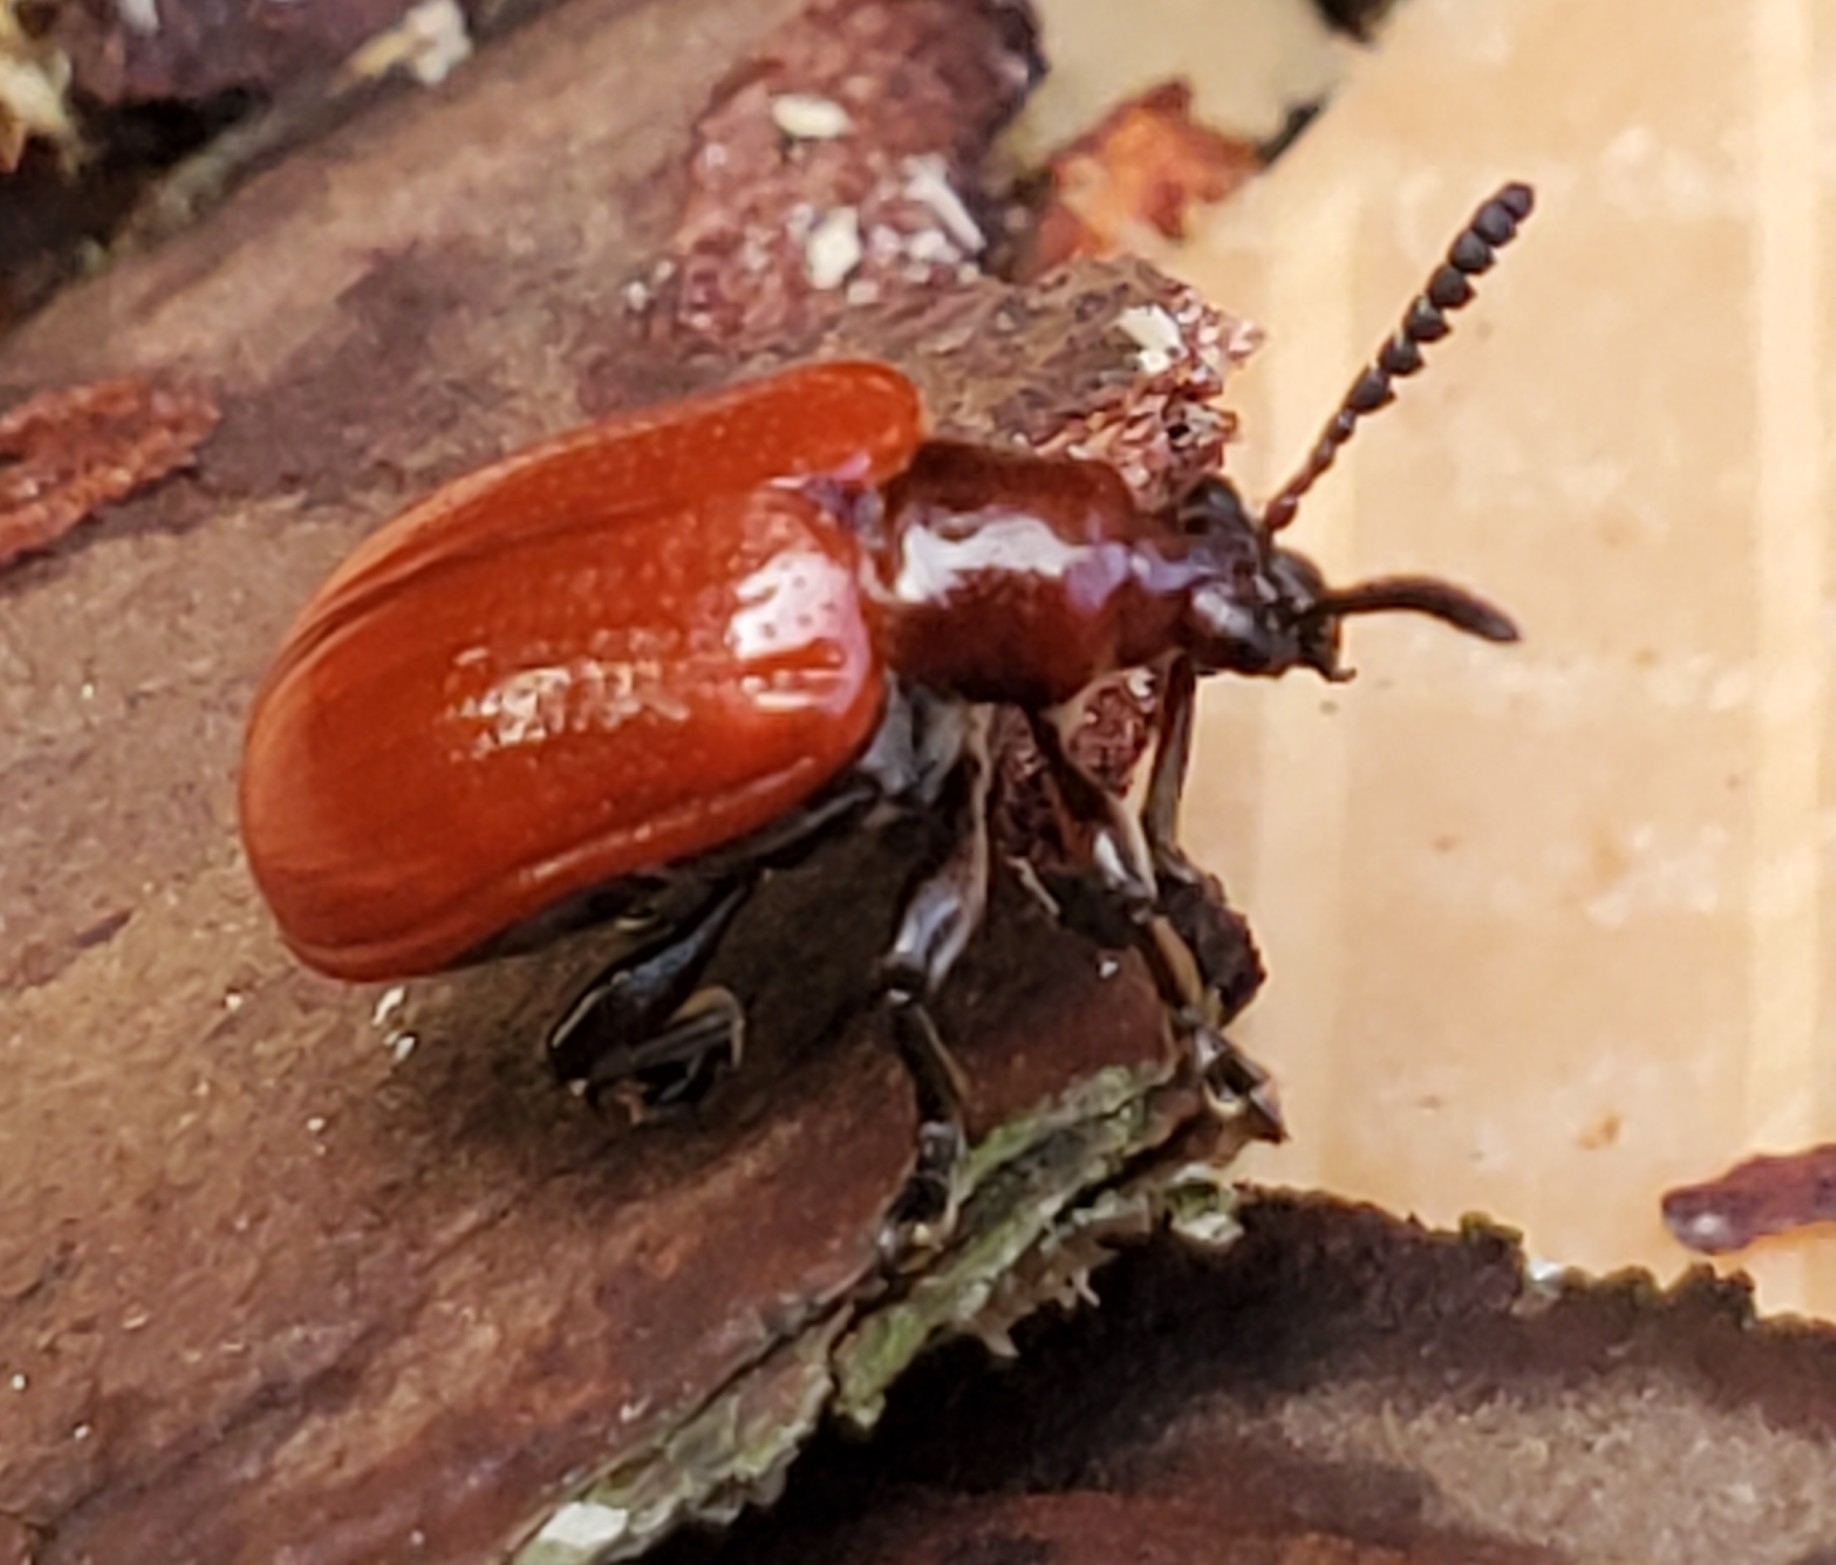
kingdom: Animalia
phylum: Arthropoda
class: Insecta
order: Coleoptera
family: Chrysomelidae
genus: Lilioceris
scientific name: Lilioceris cheni
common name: Leaf beetle
